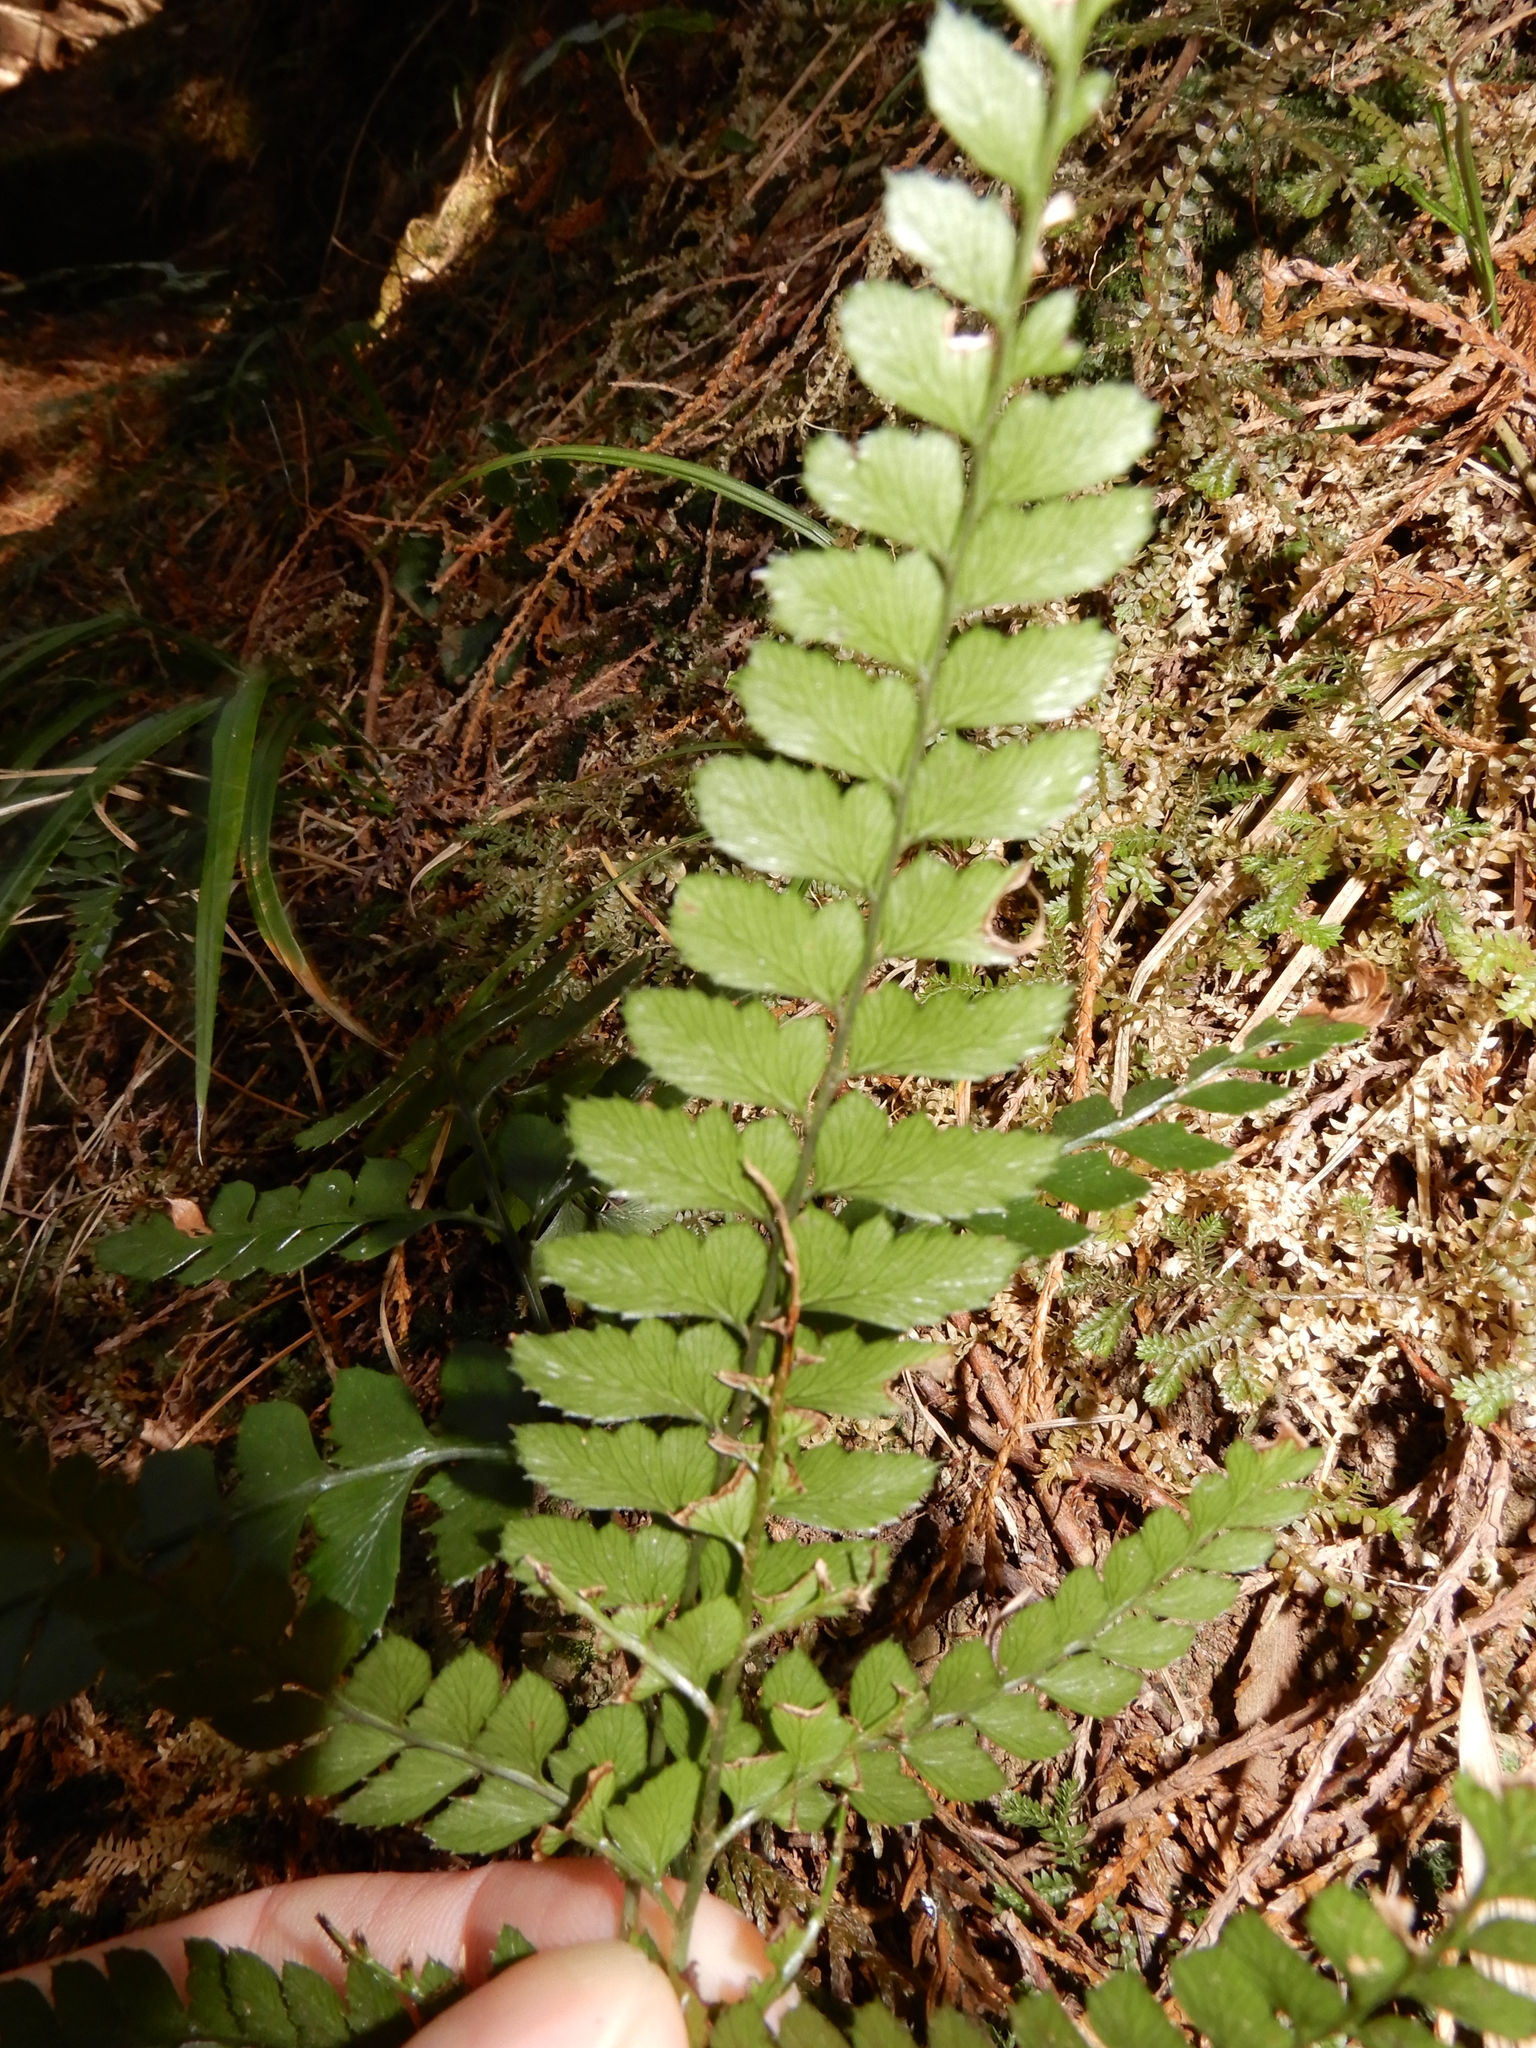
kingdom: Plantae
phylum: Tracheophyta
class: Polypodiopsida
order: Polypodiales
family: Dryopteridaceae
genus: Arachniodes
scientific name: Arachniodes rhomboidea
